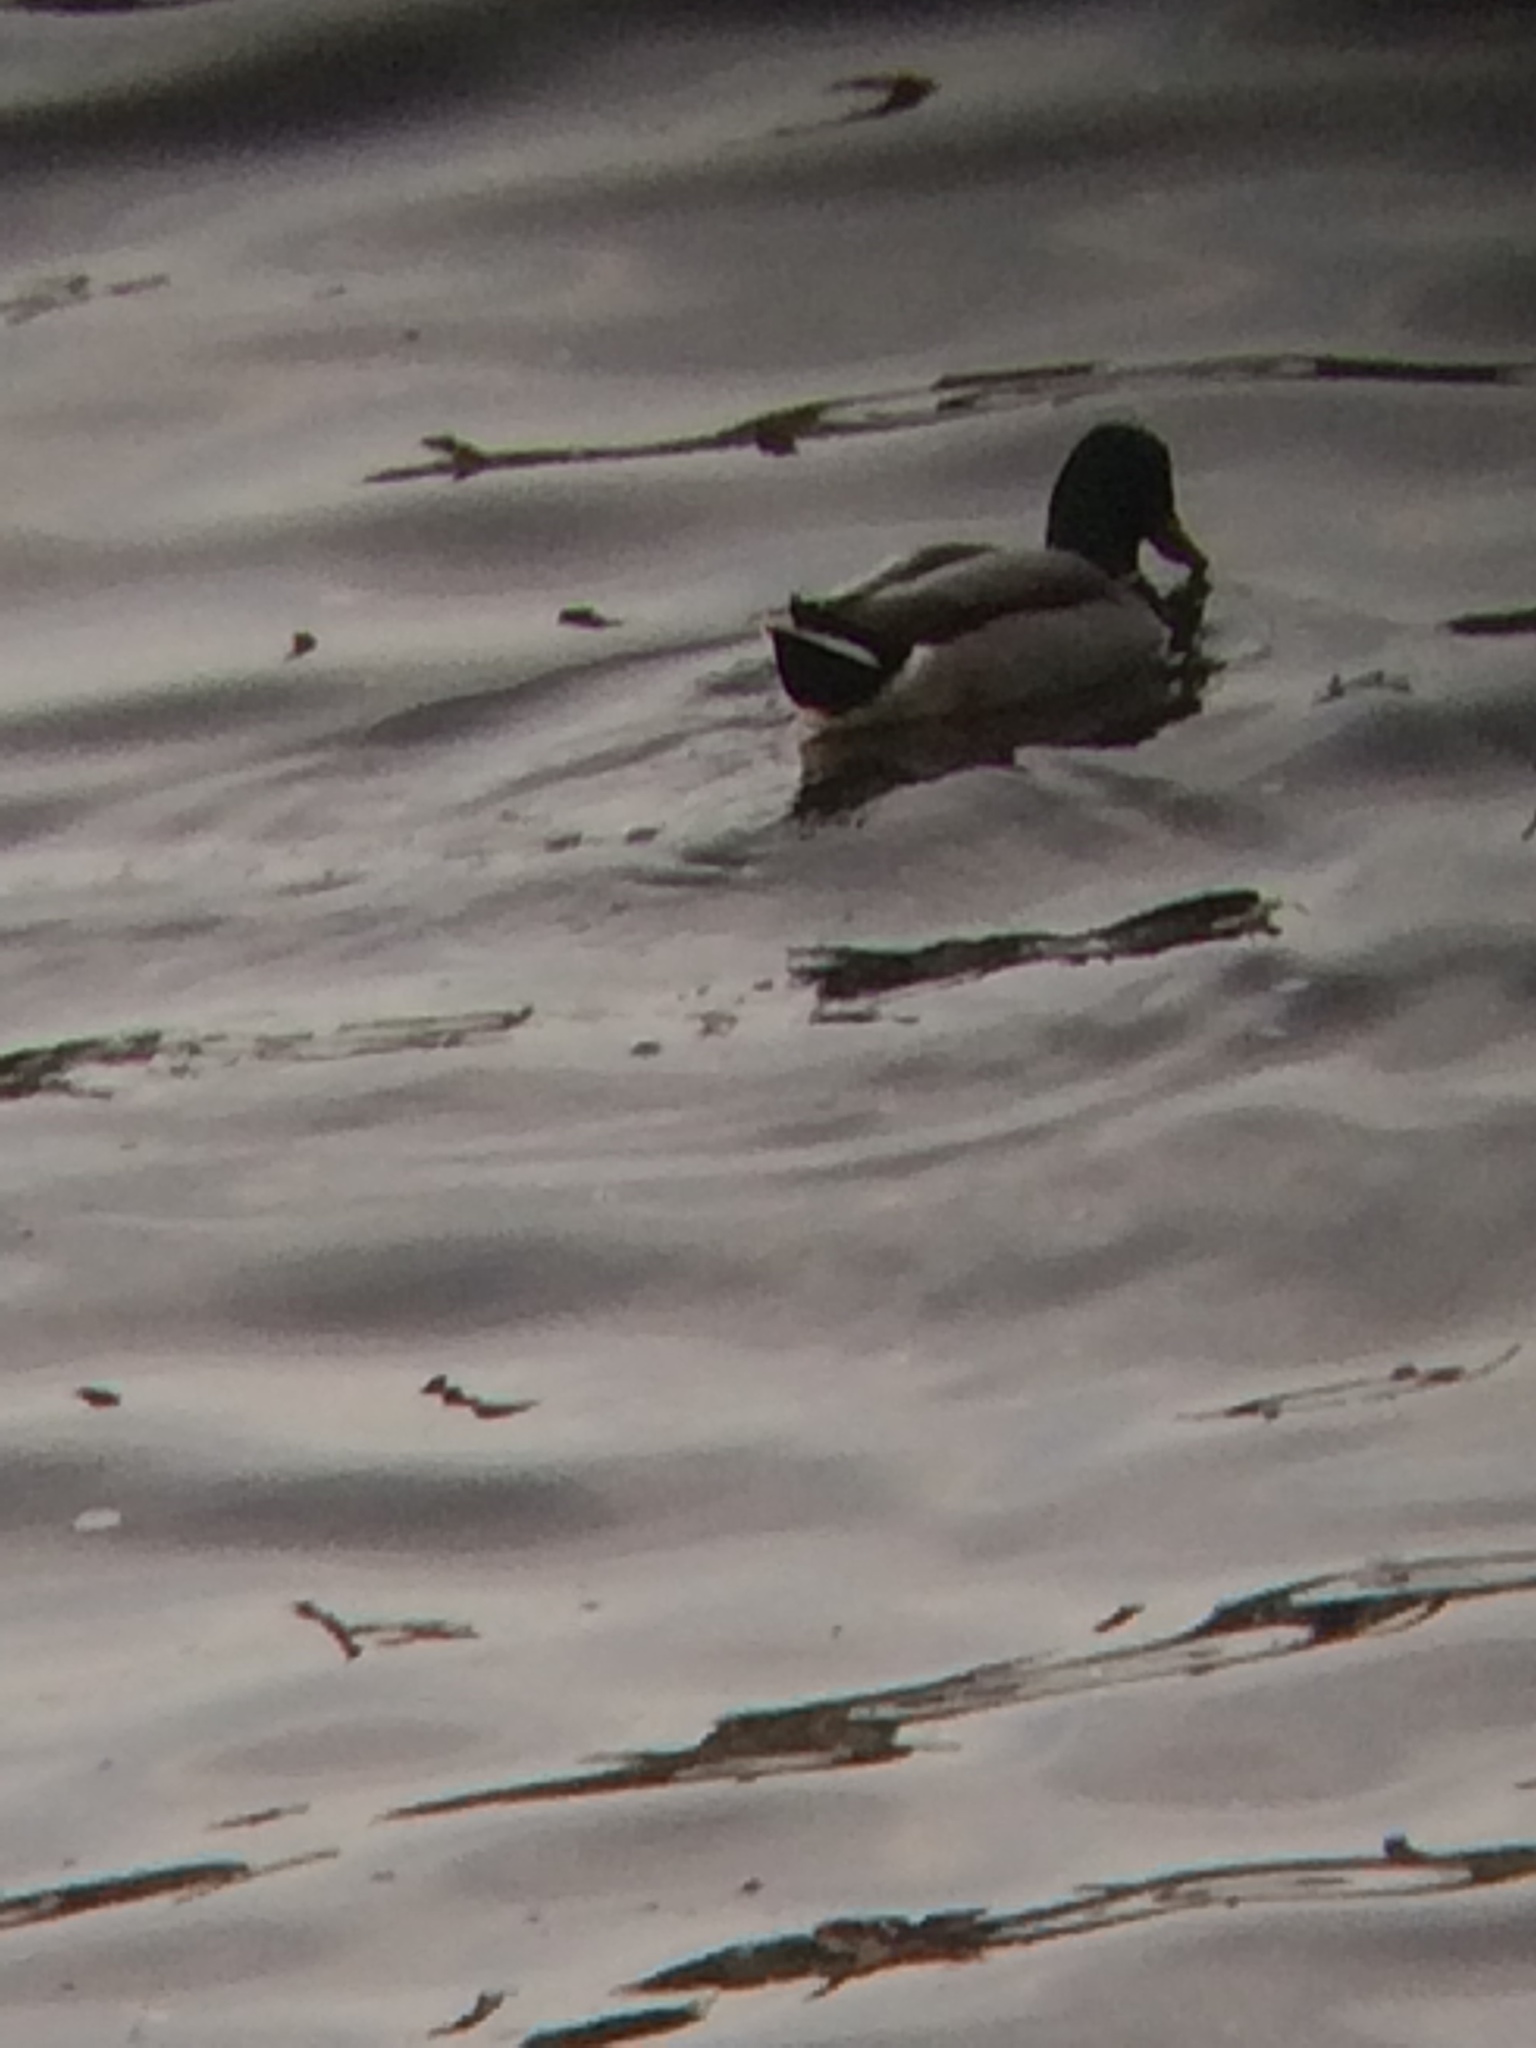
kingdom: Animalia
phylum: Chordata
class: Aves
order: Anseriformes
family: Anatidae
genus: Anas
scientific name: Anas platyrhynchos
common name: Mallard
